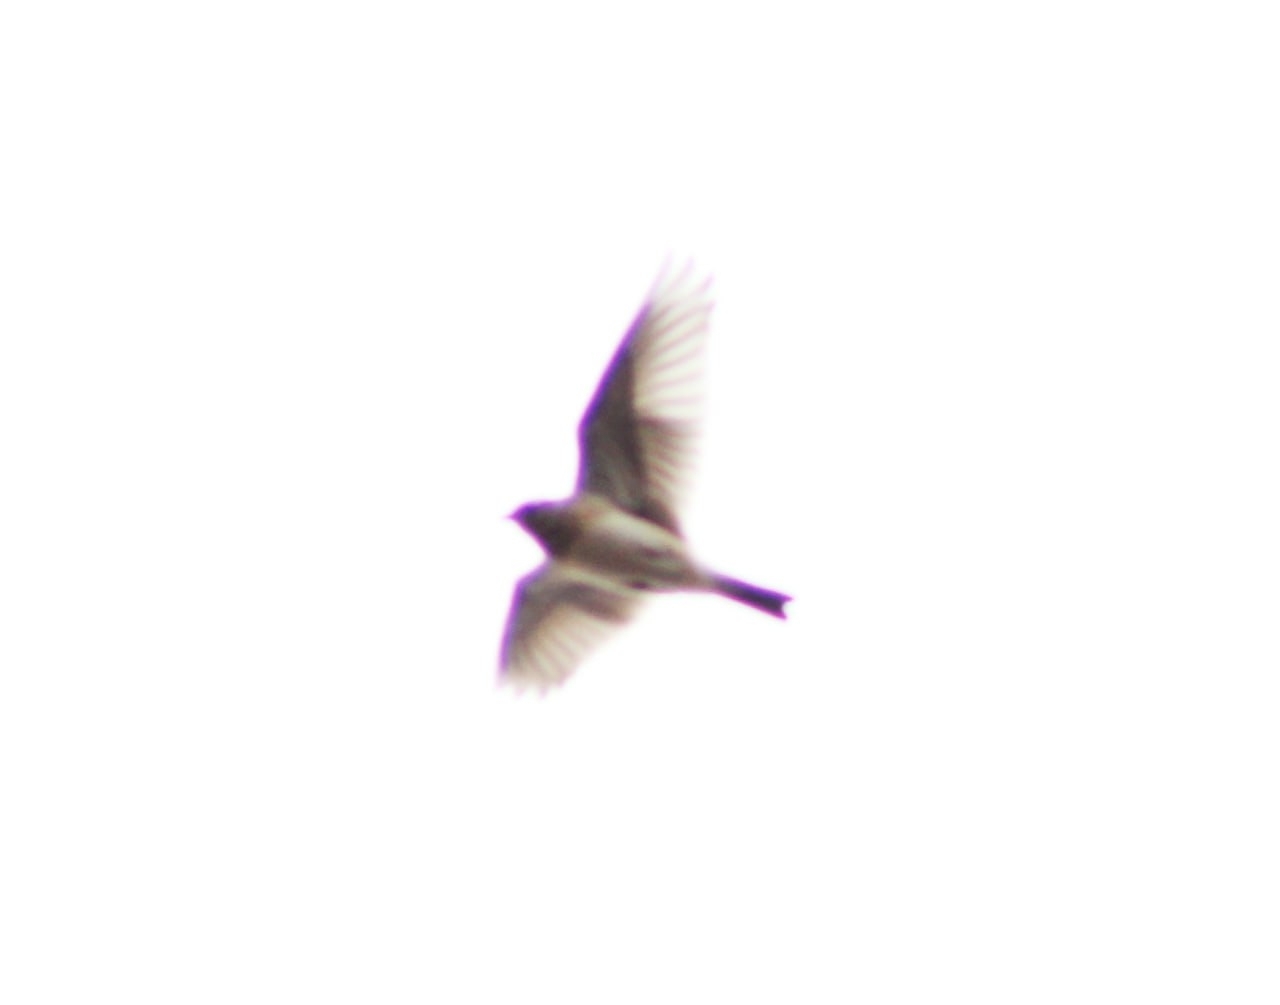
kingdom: Animalia
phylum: Chordata
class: Aves
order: Passeriformes
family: Alaudidae
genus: Alauda
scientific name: Alauda arvensis
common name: Eurasian skylark
